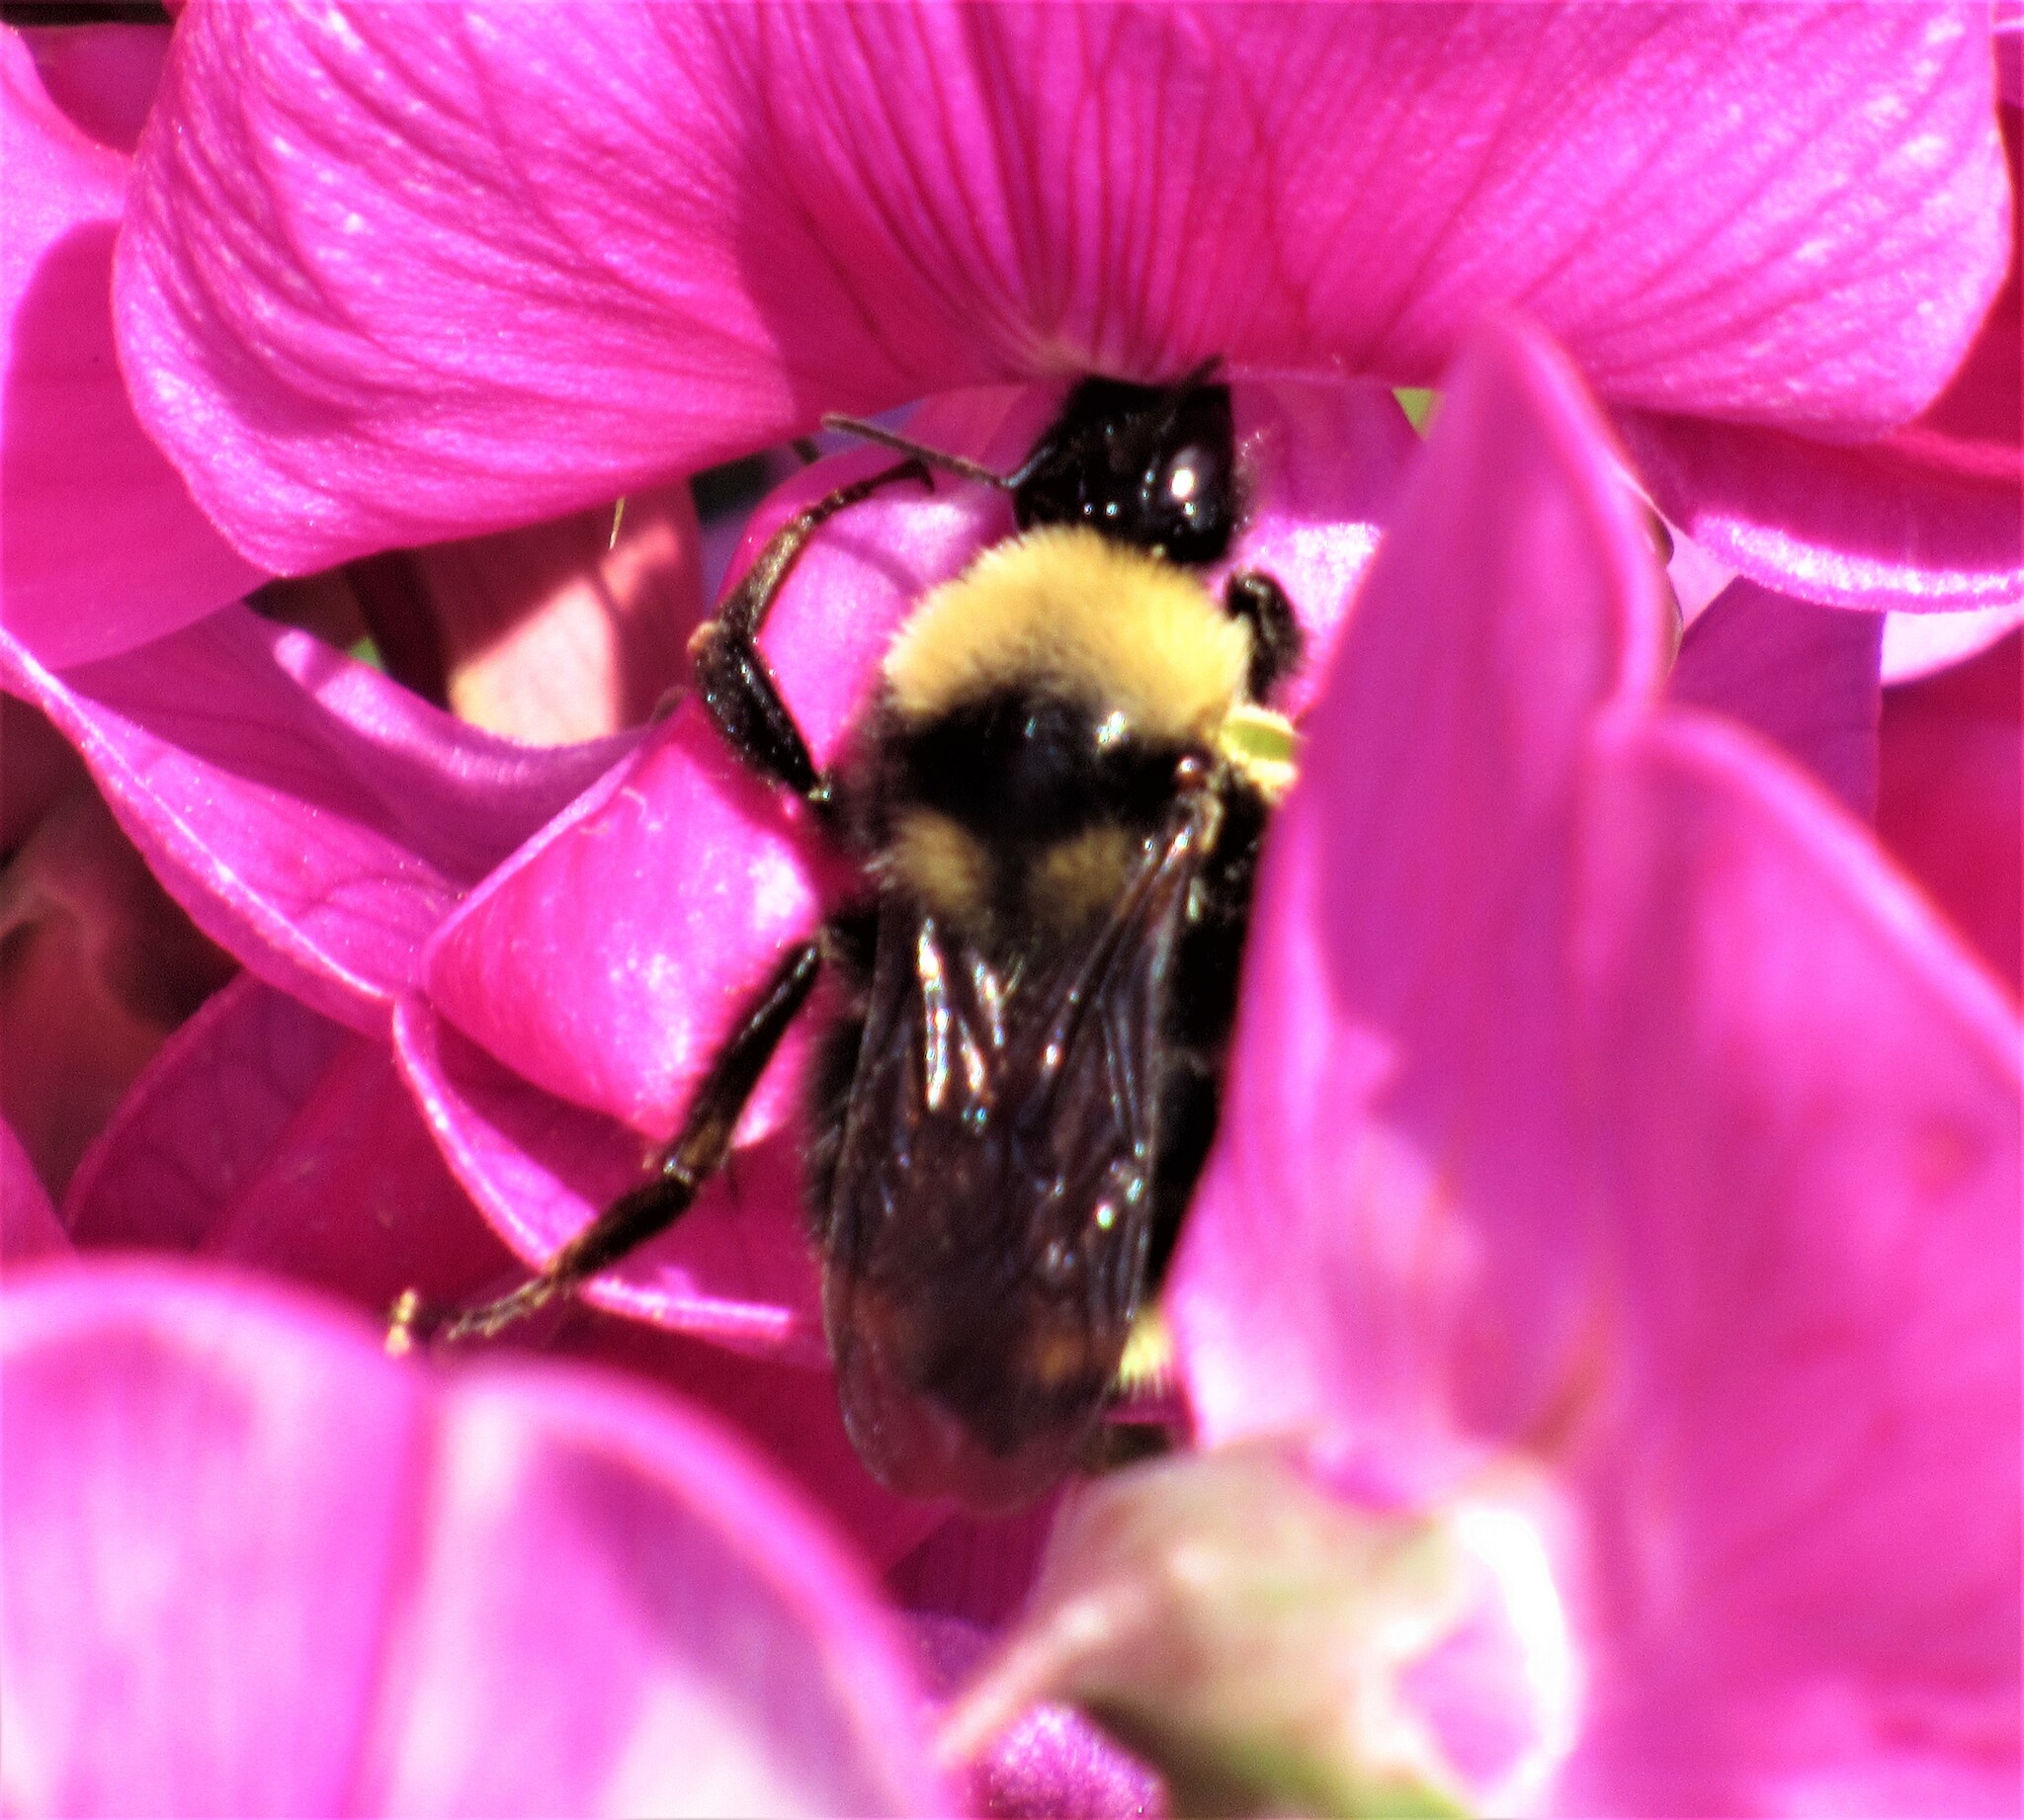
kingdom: Animalia
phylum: Arthropoda
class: Insecta
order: Hymenoptera
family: Apidae
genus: Bombus
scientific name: Bombus californicus
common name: California bumble bee
